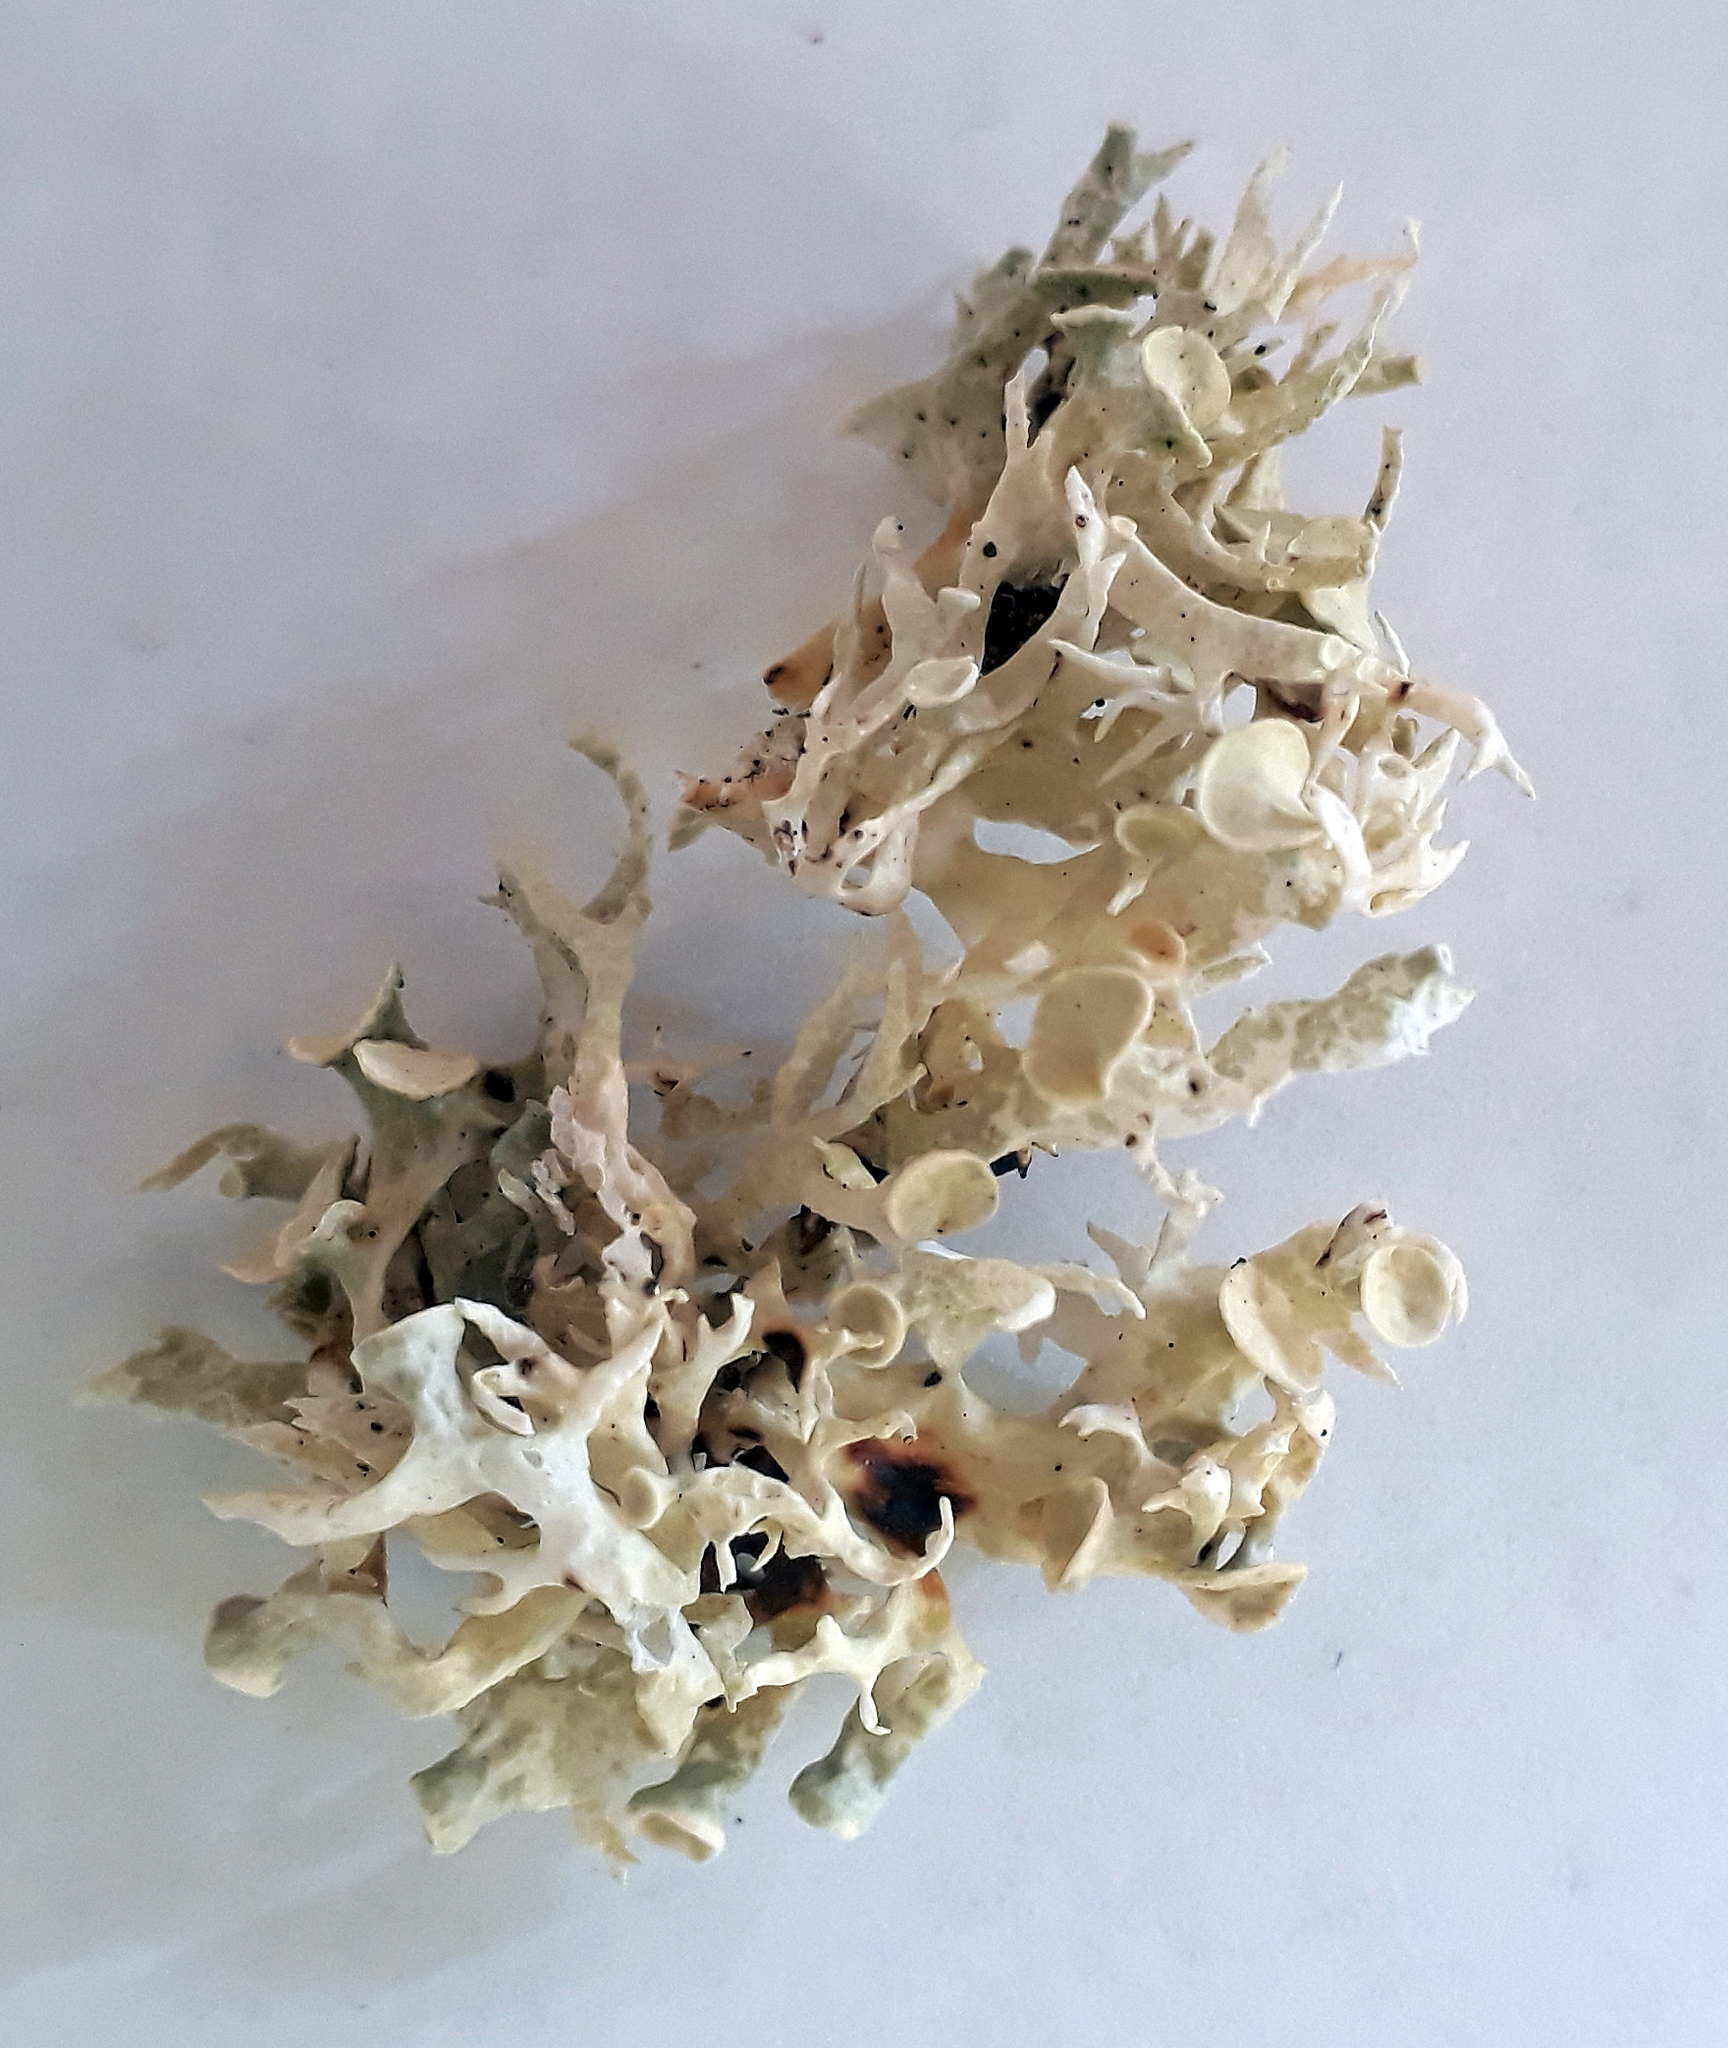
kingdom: Fungi
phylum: Ascomycota
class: Lecanoromycetes
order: Lecanorales
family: Ramalinaceae
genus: Ramalina
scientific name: Ramalina inflata
